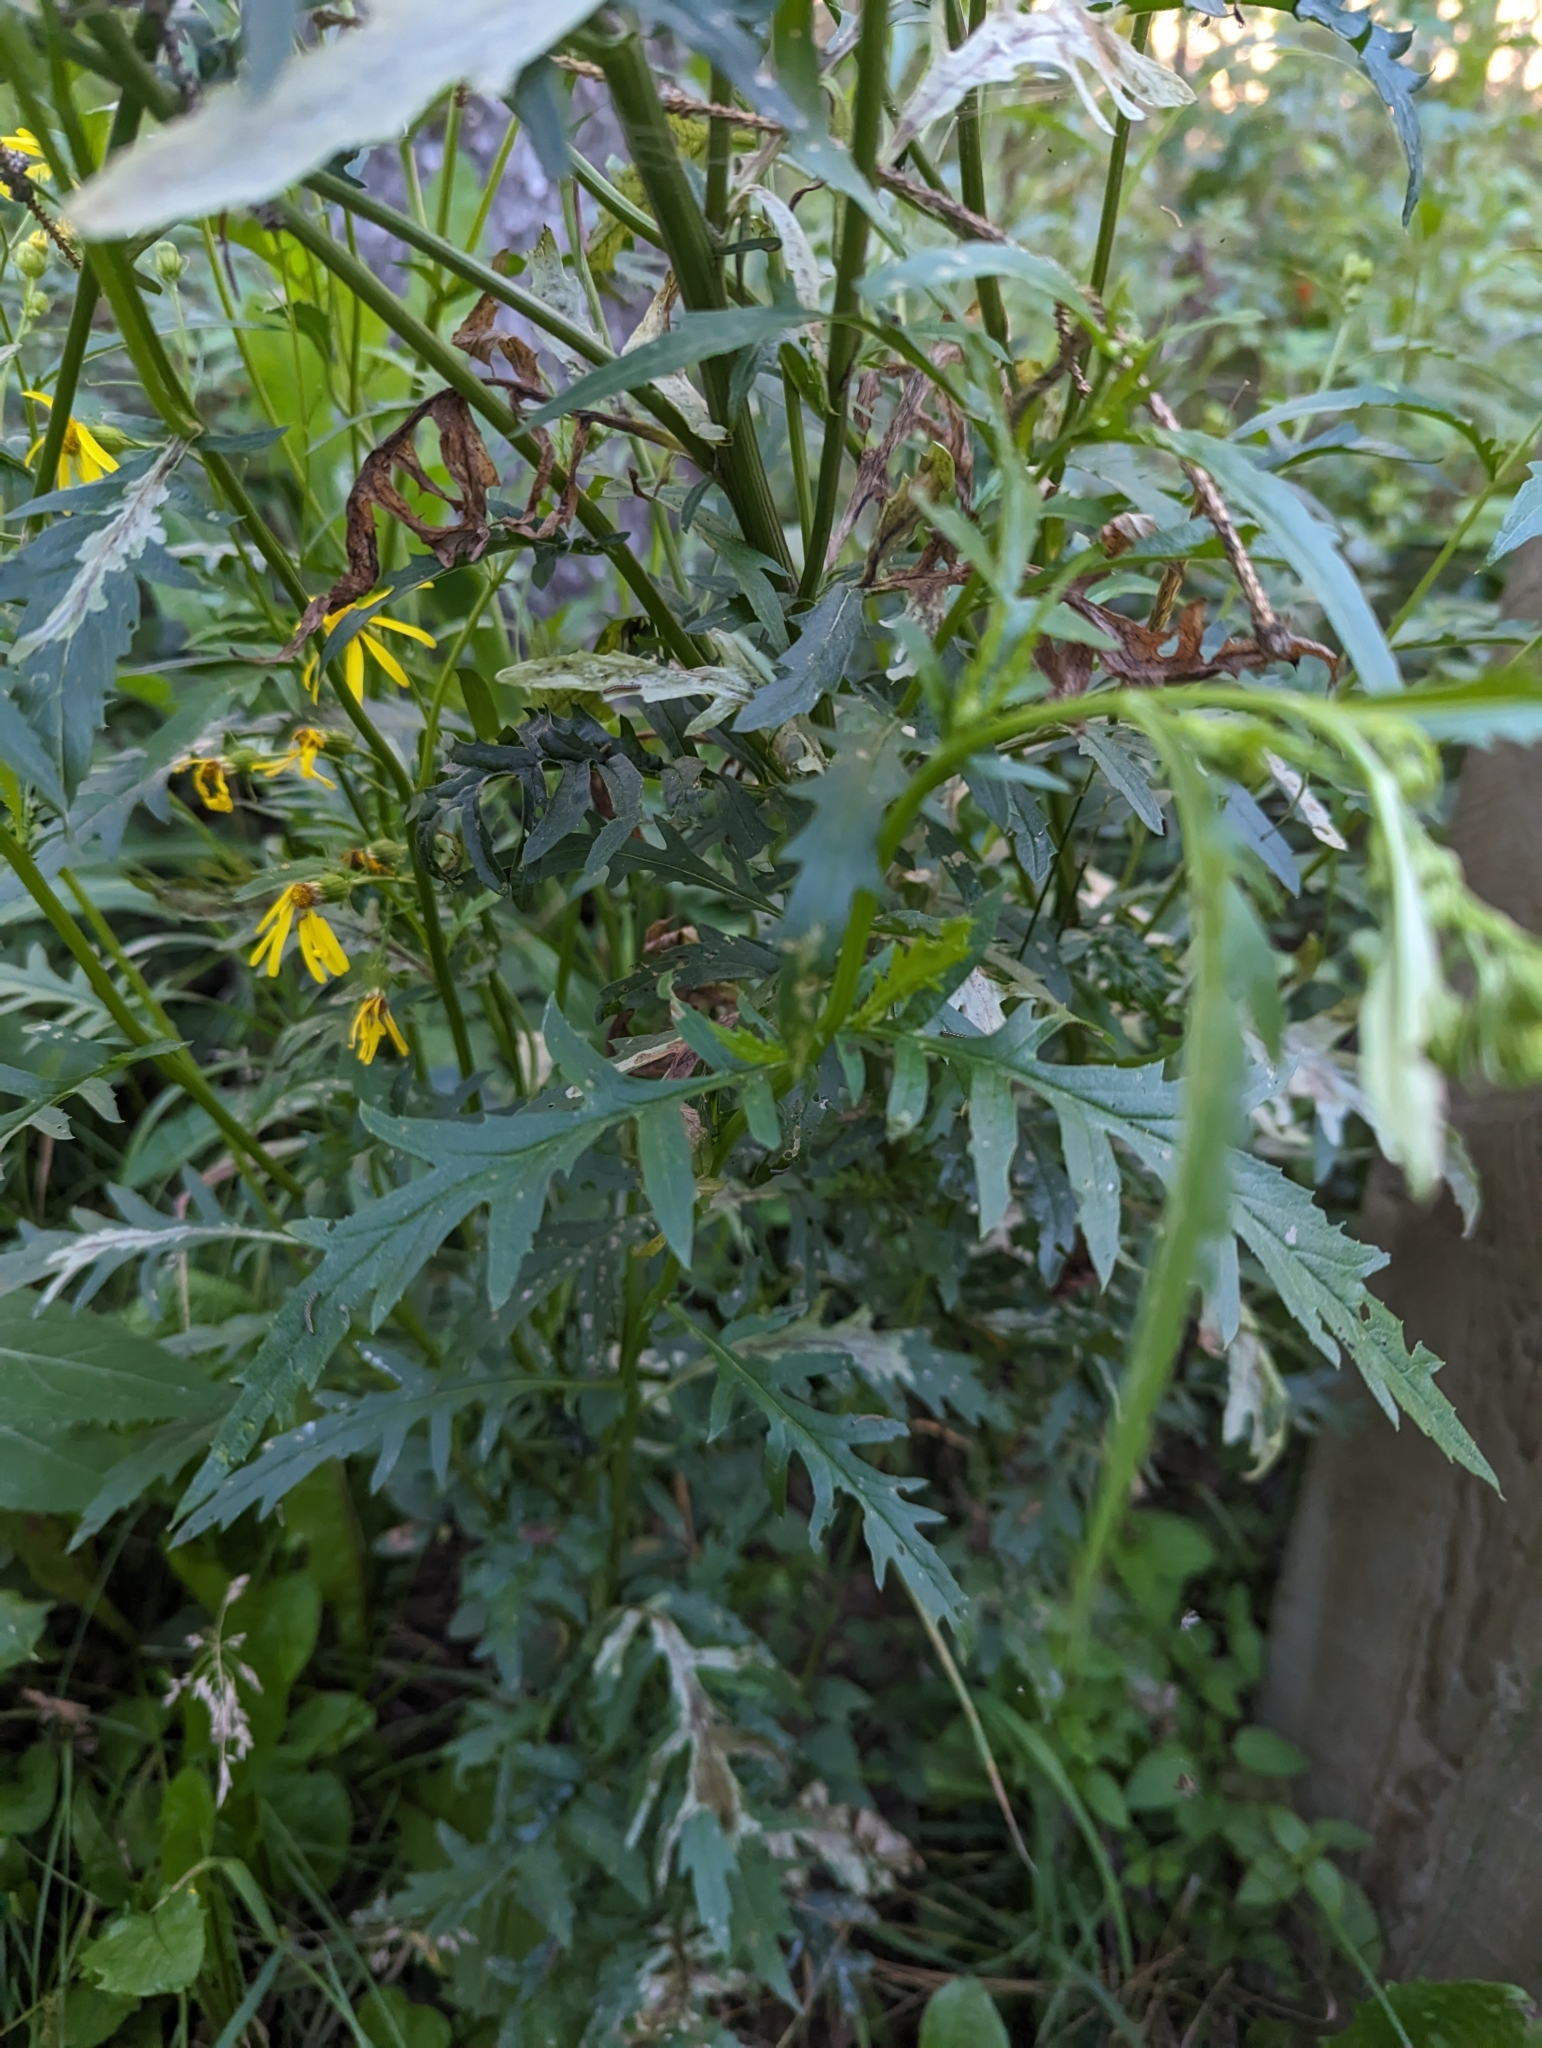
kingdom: Plantae
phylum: Tracheophyta
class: Magnoliopsida
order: Asterales
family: Asteraceae
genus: Senecio
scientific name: Senecio eremophilus
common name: Desert ragwort
